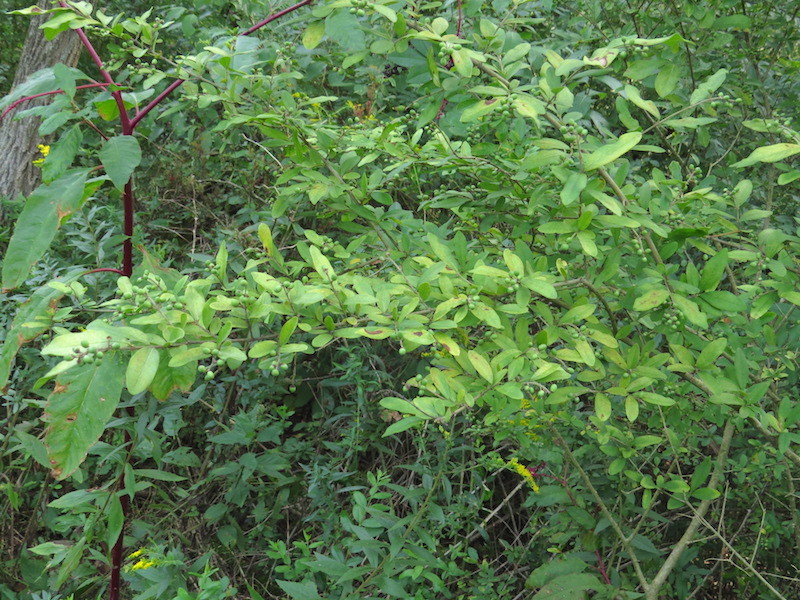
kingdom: Plantae
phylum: Tracheophyta
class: Magnoliopsida
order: Lamiales
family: Oleaceae
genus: Ligustrum
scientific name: Ligustrum obtusifolium
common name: Border privet
